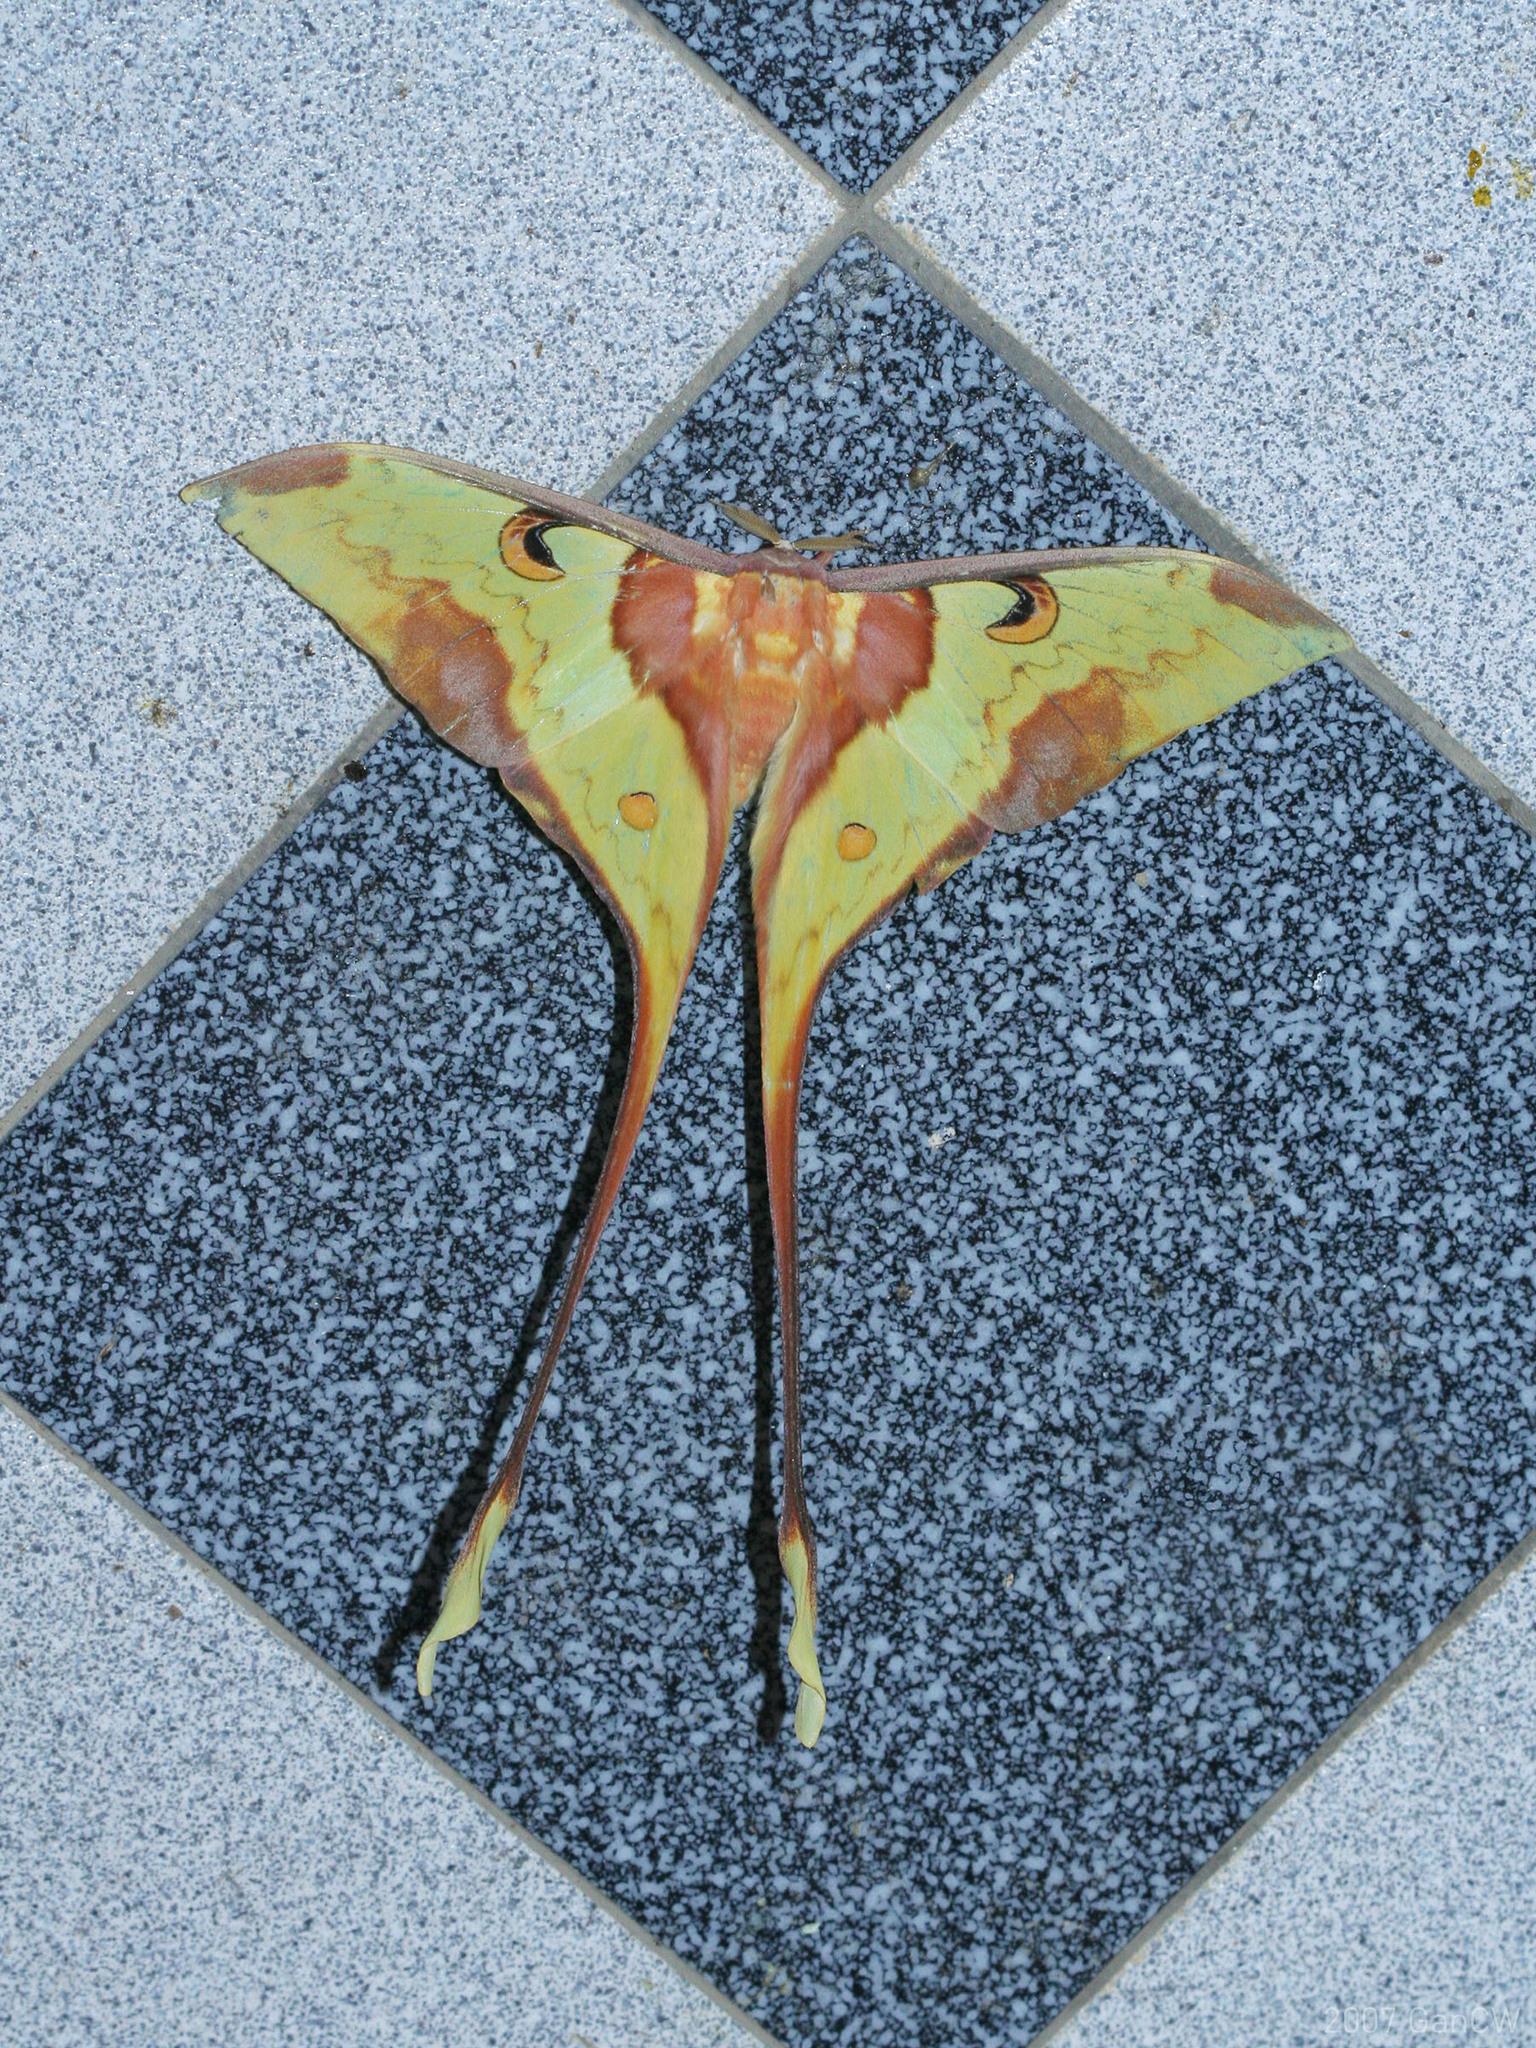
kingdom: Animalia
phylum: Arthropoda
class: Insecta
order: Lepidoptera
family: Saturniidae
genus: Actias
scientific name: Actias maenas
